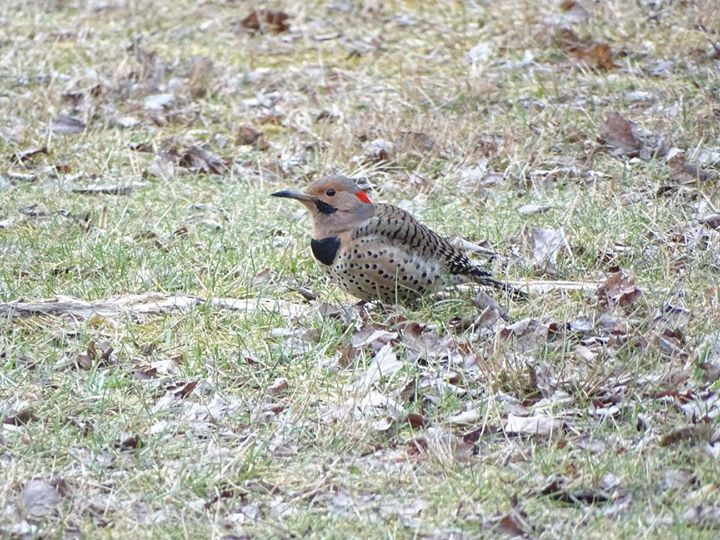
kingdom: Animalia
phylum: Chordata
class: Aves
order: Piciformes
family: Picidae
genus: Colaptes
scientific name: Colaptes auratus
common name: Northern flicker
